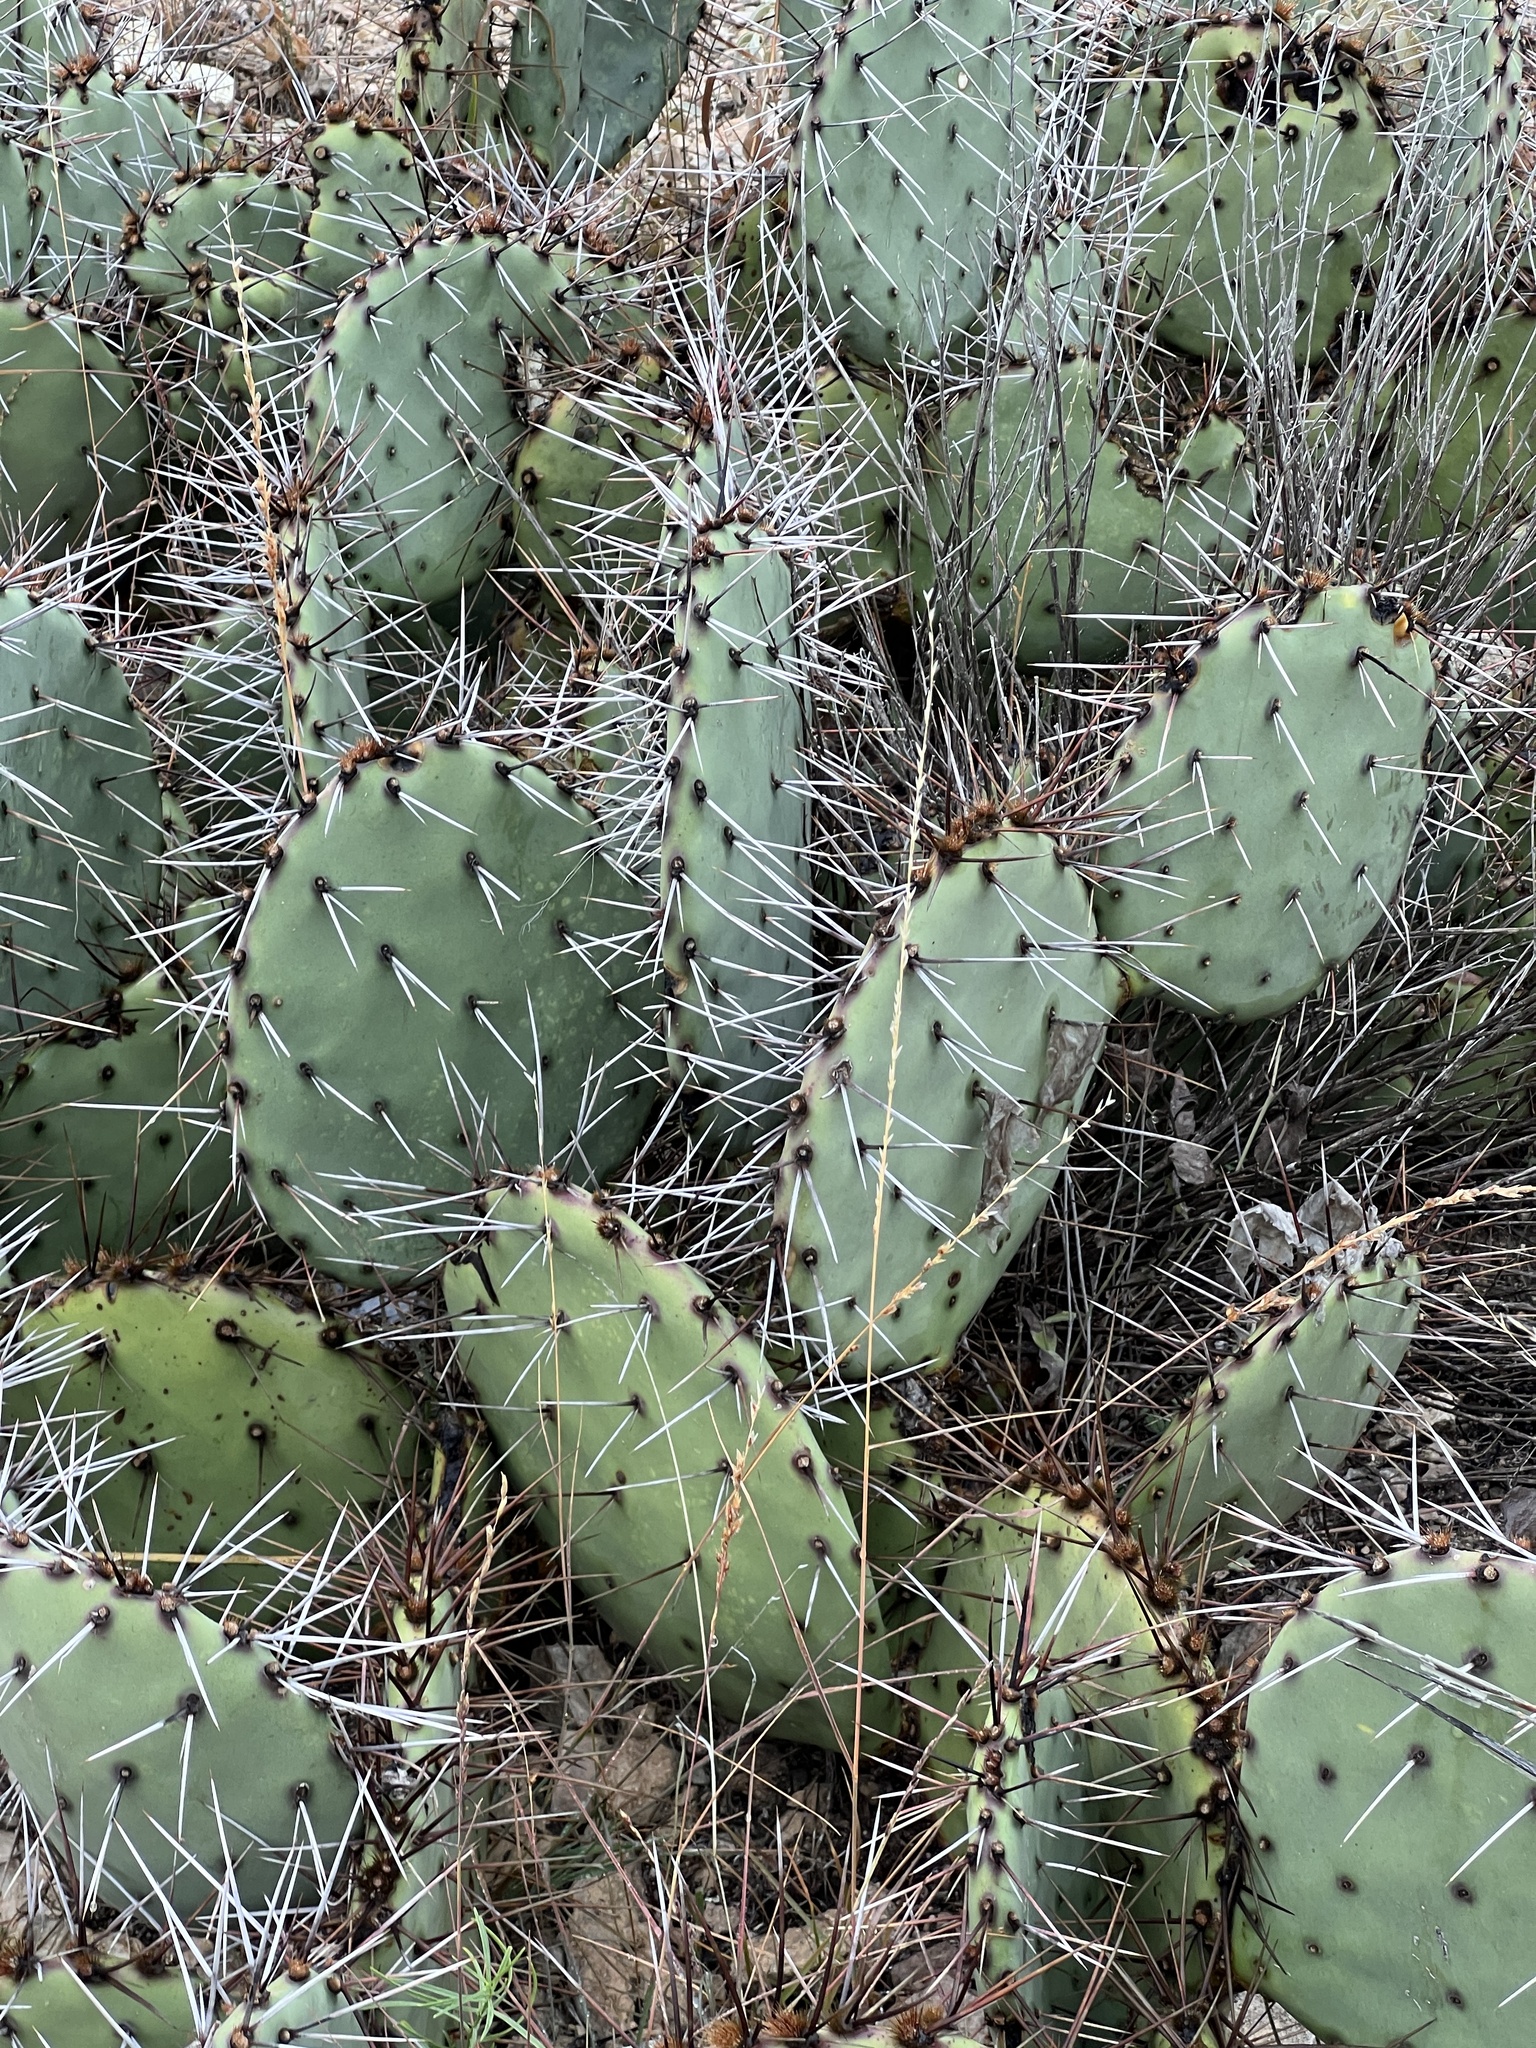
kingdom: Plantae
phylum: Tracheophyta
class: Magnoliopsida
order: Caryophyllales
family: Cactaceae
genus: Opuntia
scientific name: Opuntia phaeacantha
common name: New mexico prickly-pear
